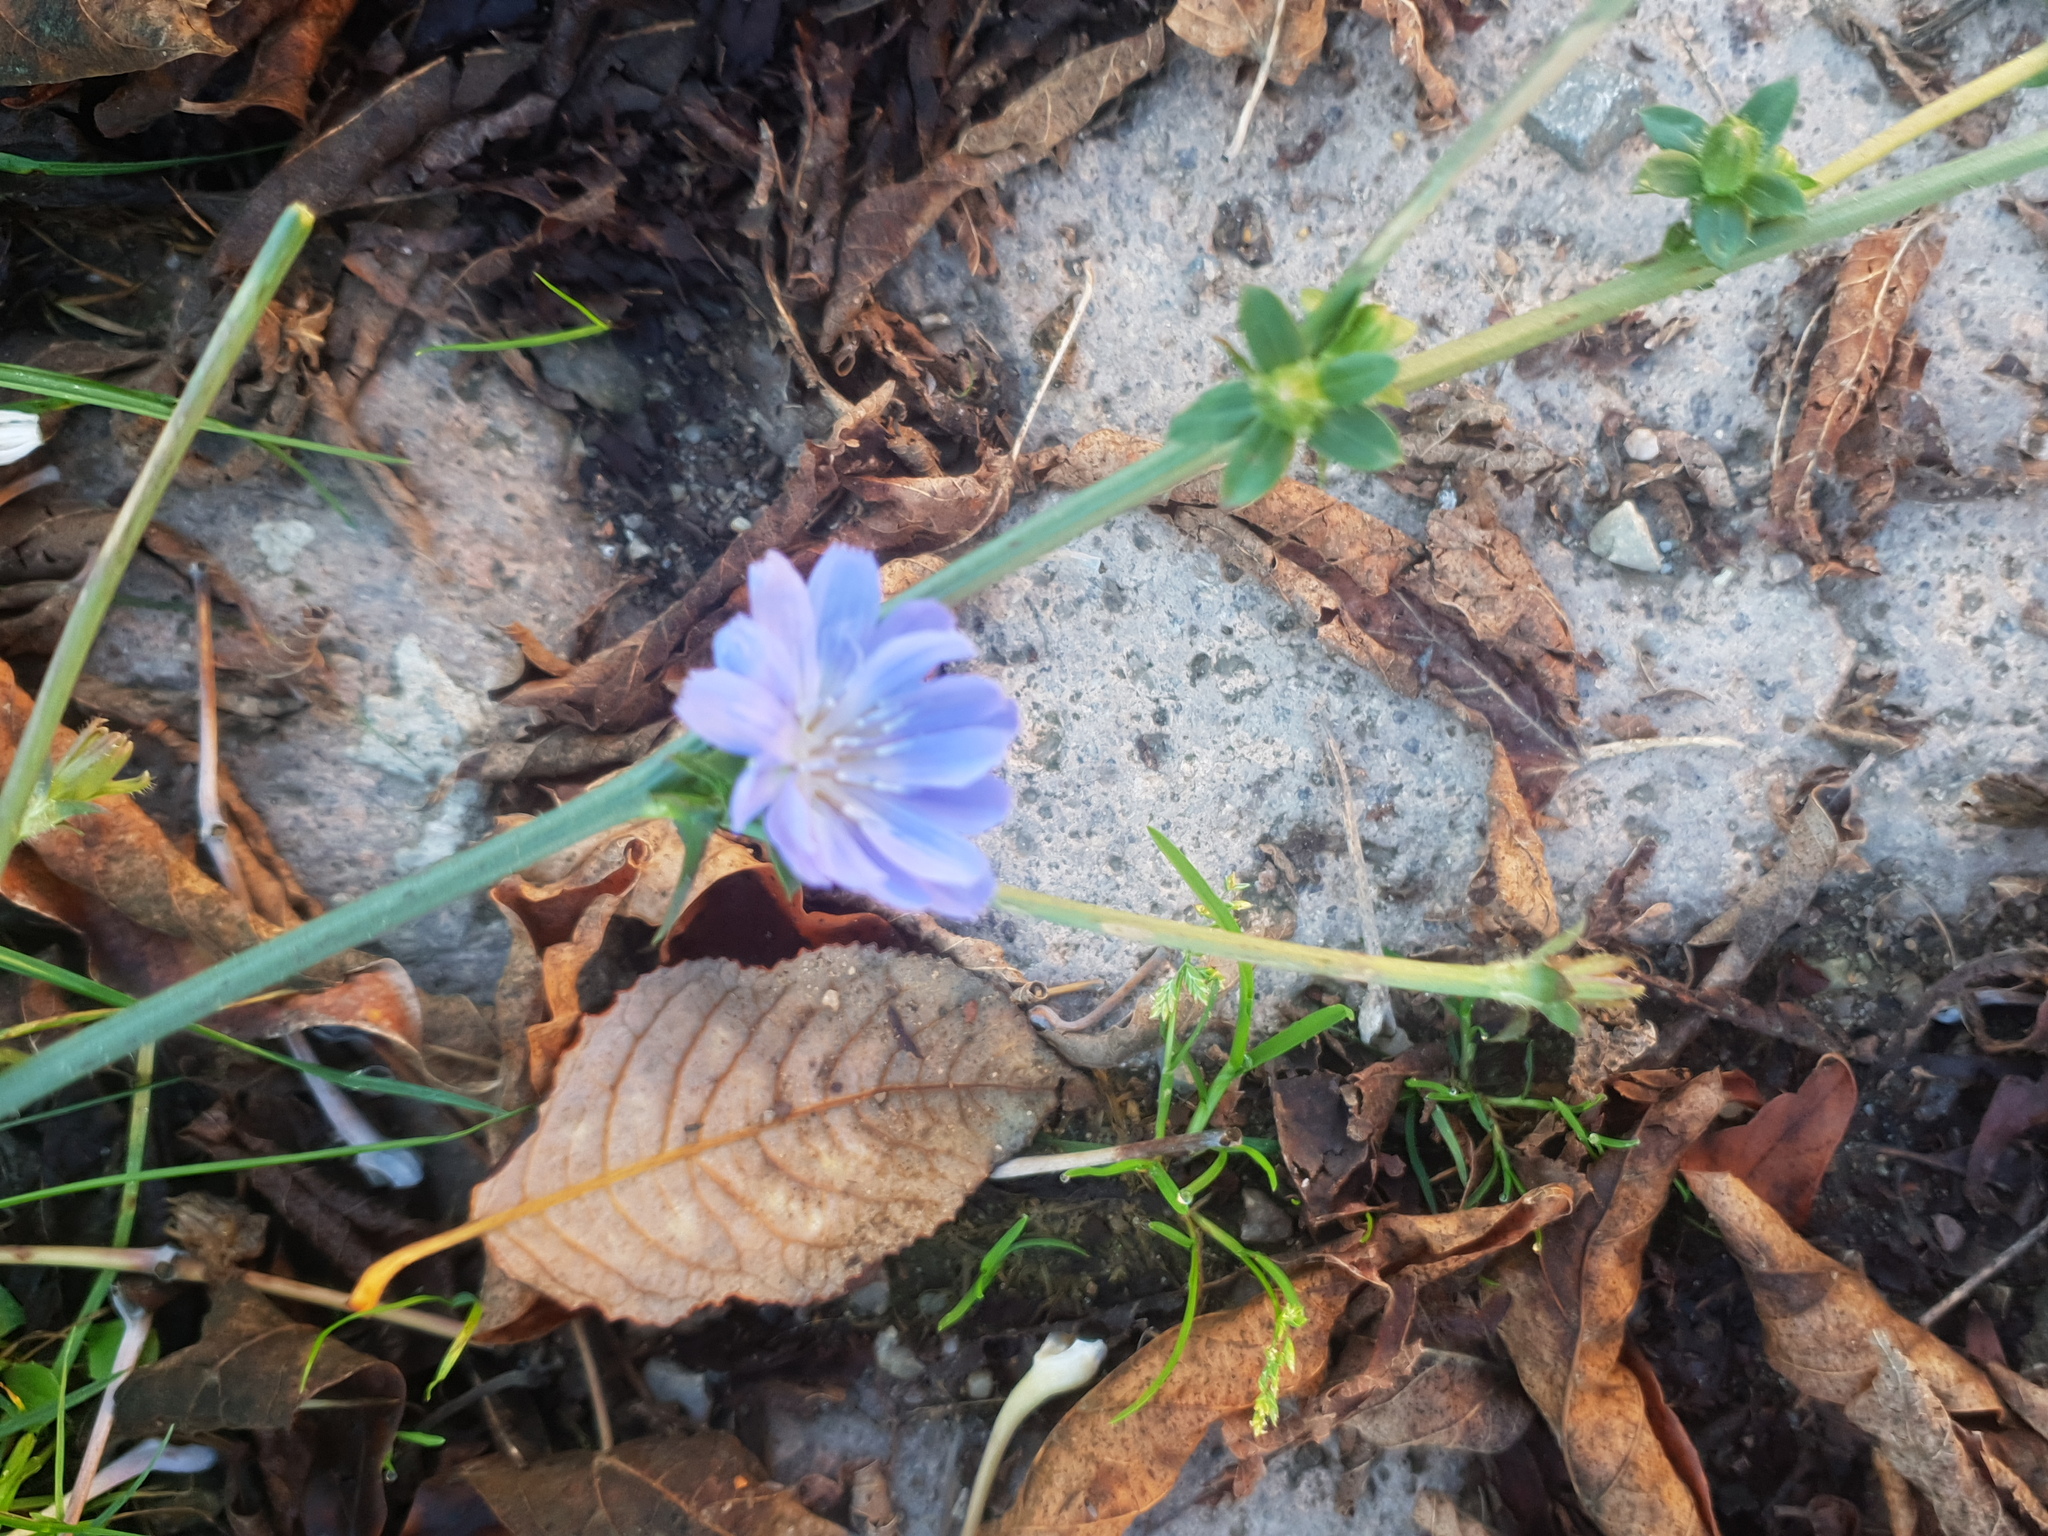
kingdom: Plantae
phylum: Tracheophyta
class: Magnoliopsida
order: Asterales
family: Asteraceae
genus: Cichorium
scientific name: Cichorium intybus
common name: Chicory
